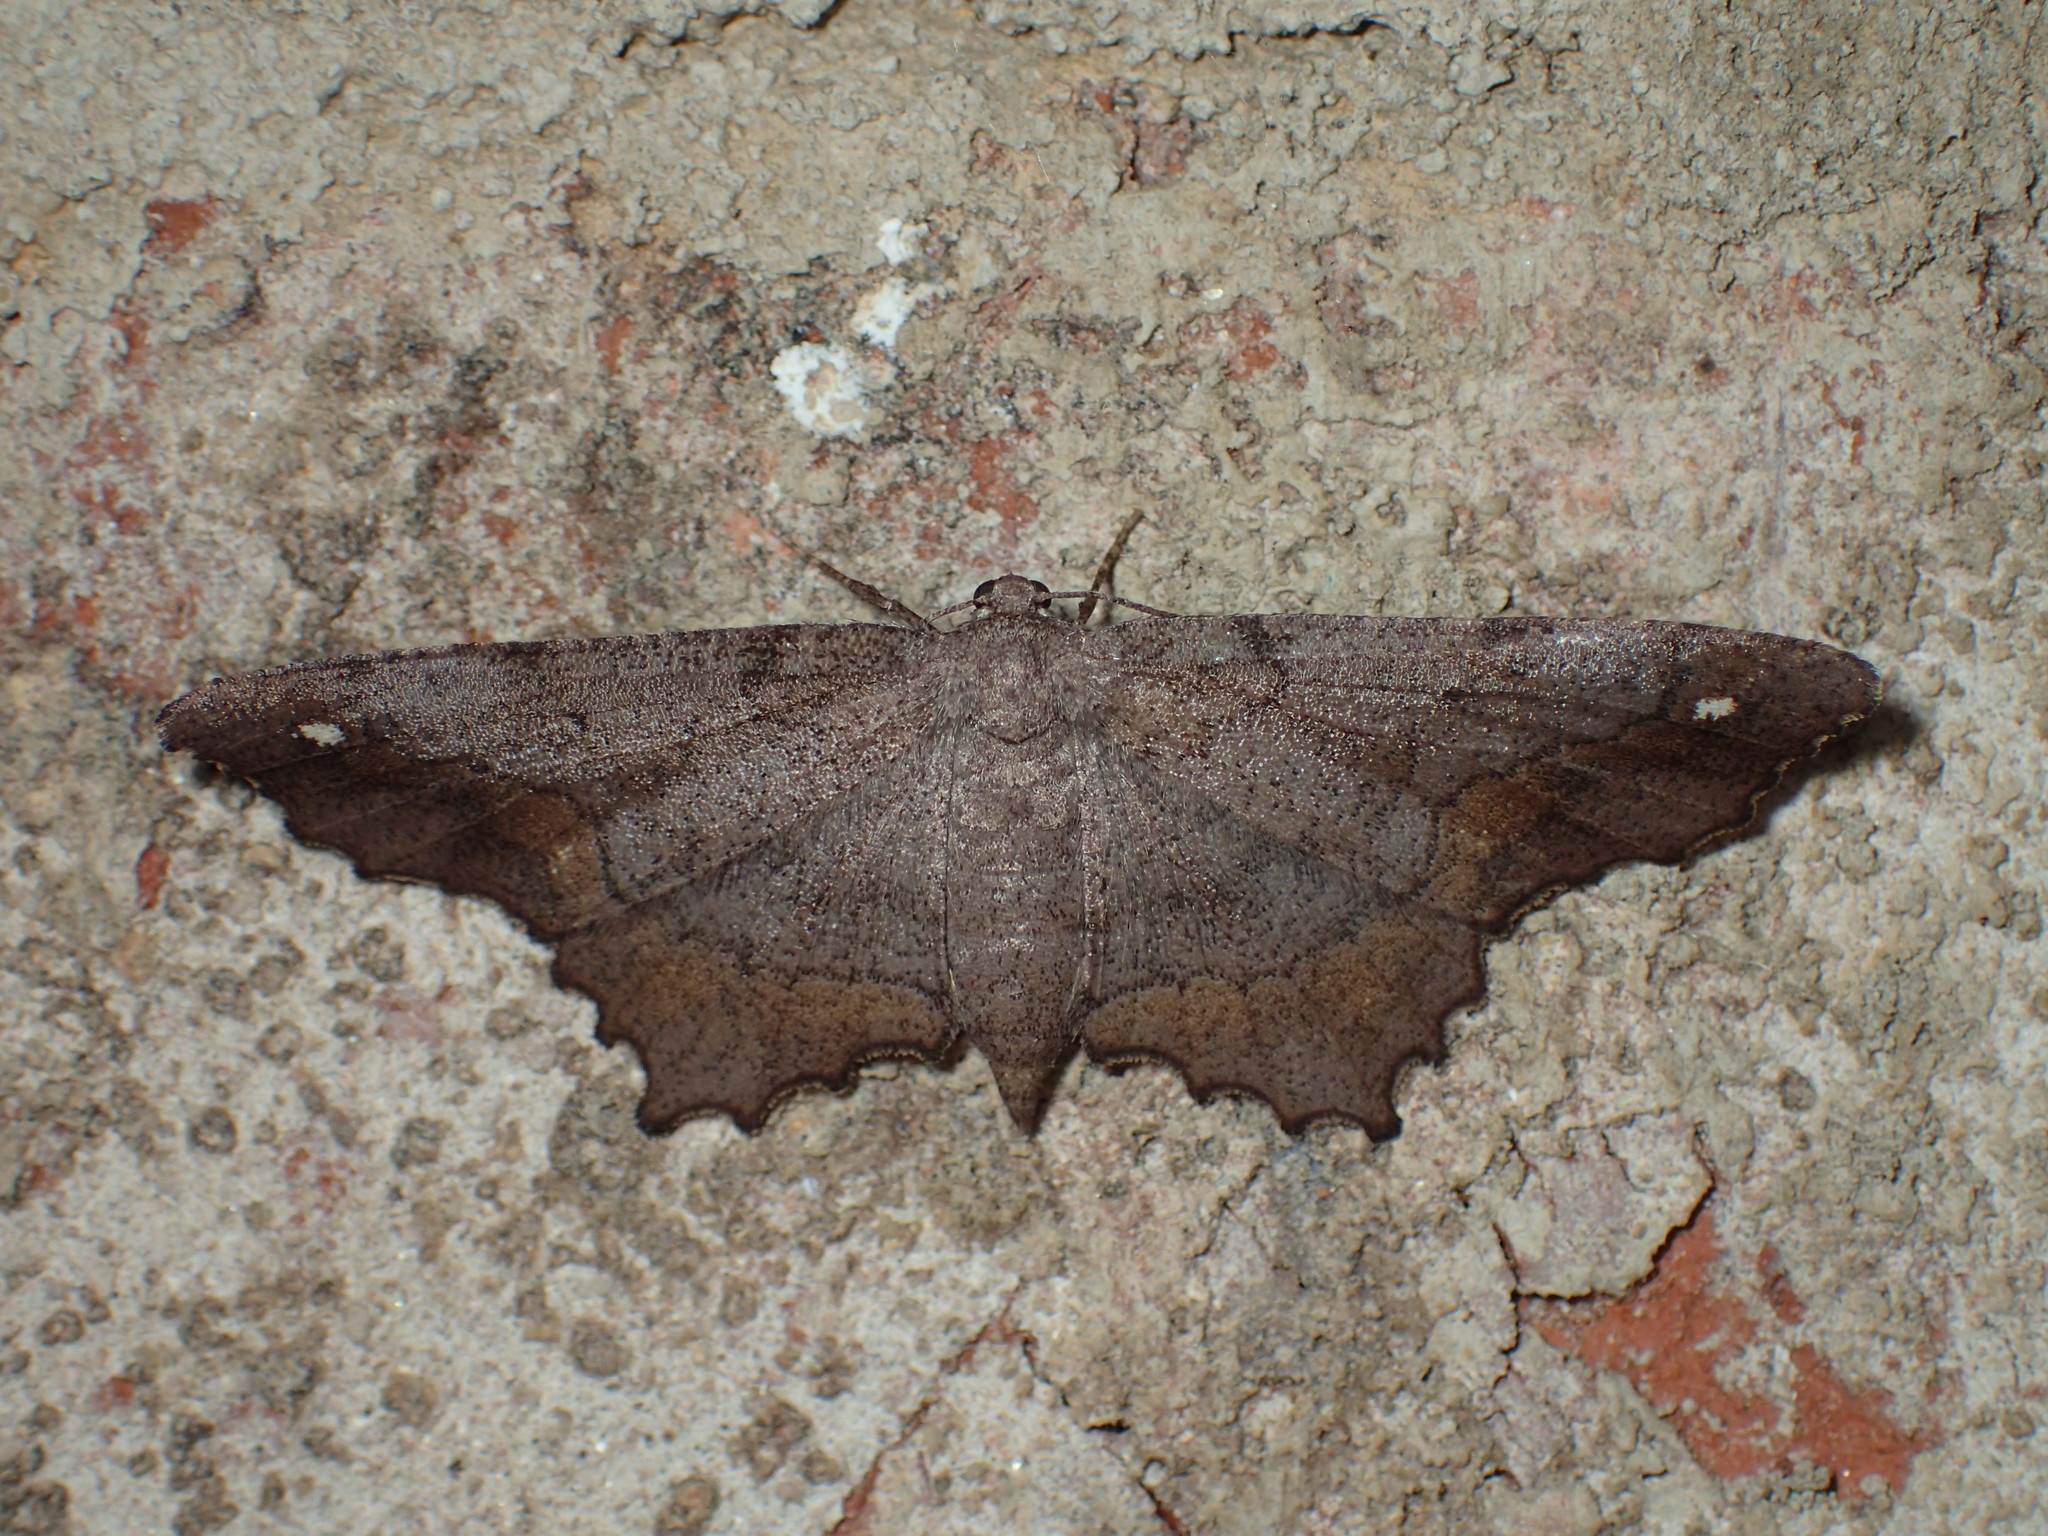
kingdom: Animalia
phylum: Arthropoda
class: Insecta
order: Lepidoptera
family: Geometridae
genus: Hypagyrtis
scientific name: Hypagyrtis esther
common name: Esther moth
